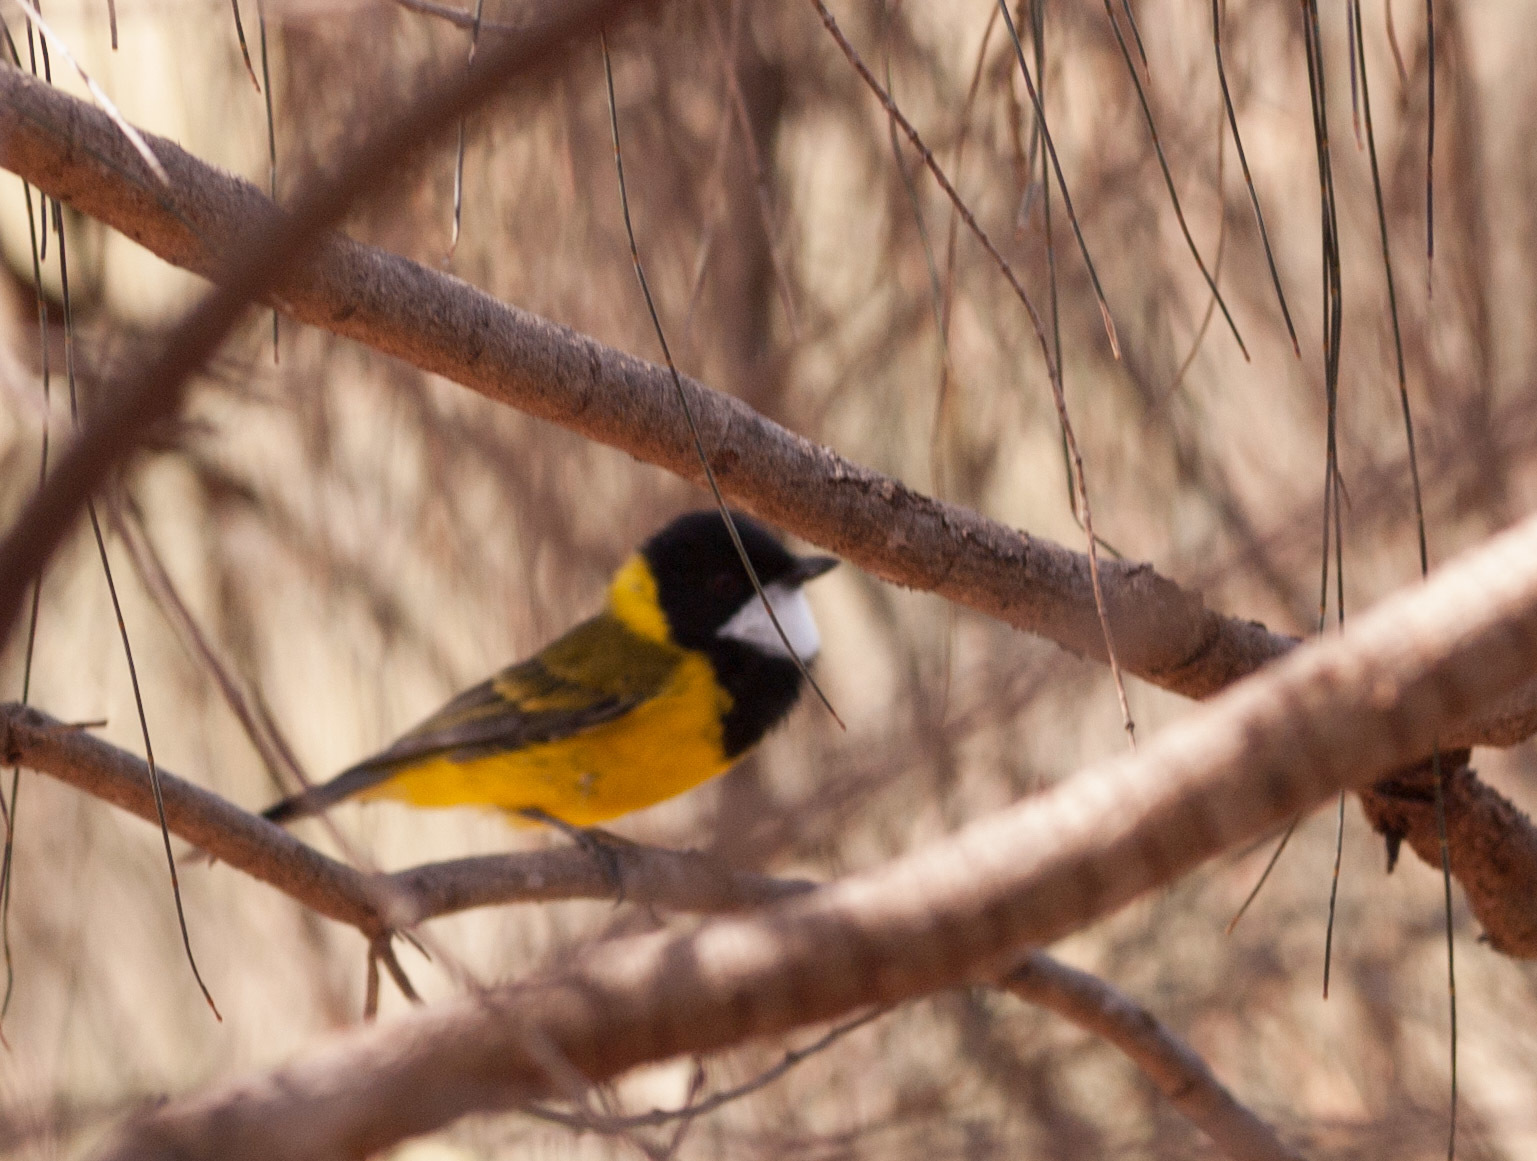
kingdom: Animalia
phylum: Chordata
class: Aves
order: Passeriformes
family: Pachycephalidae
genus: Pachycephala
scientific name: Pachycephala fuliginosa
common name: Western whistler
